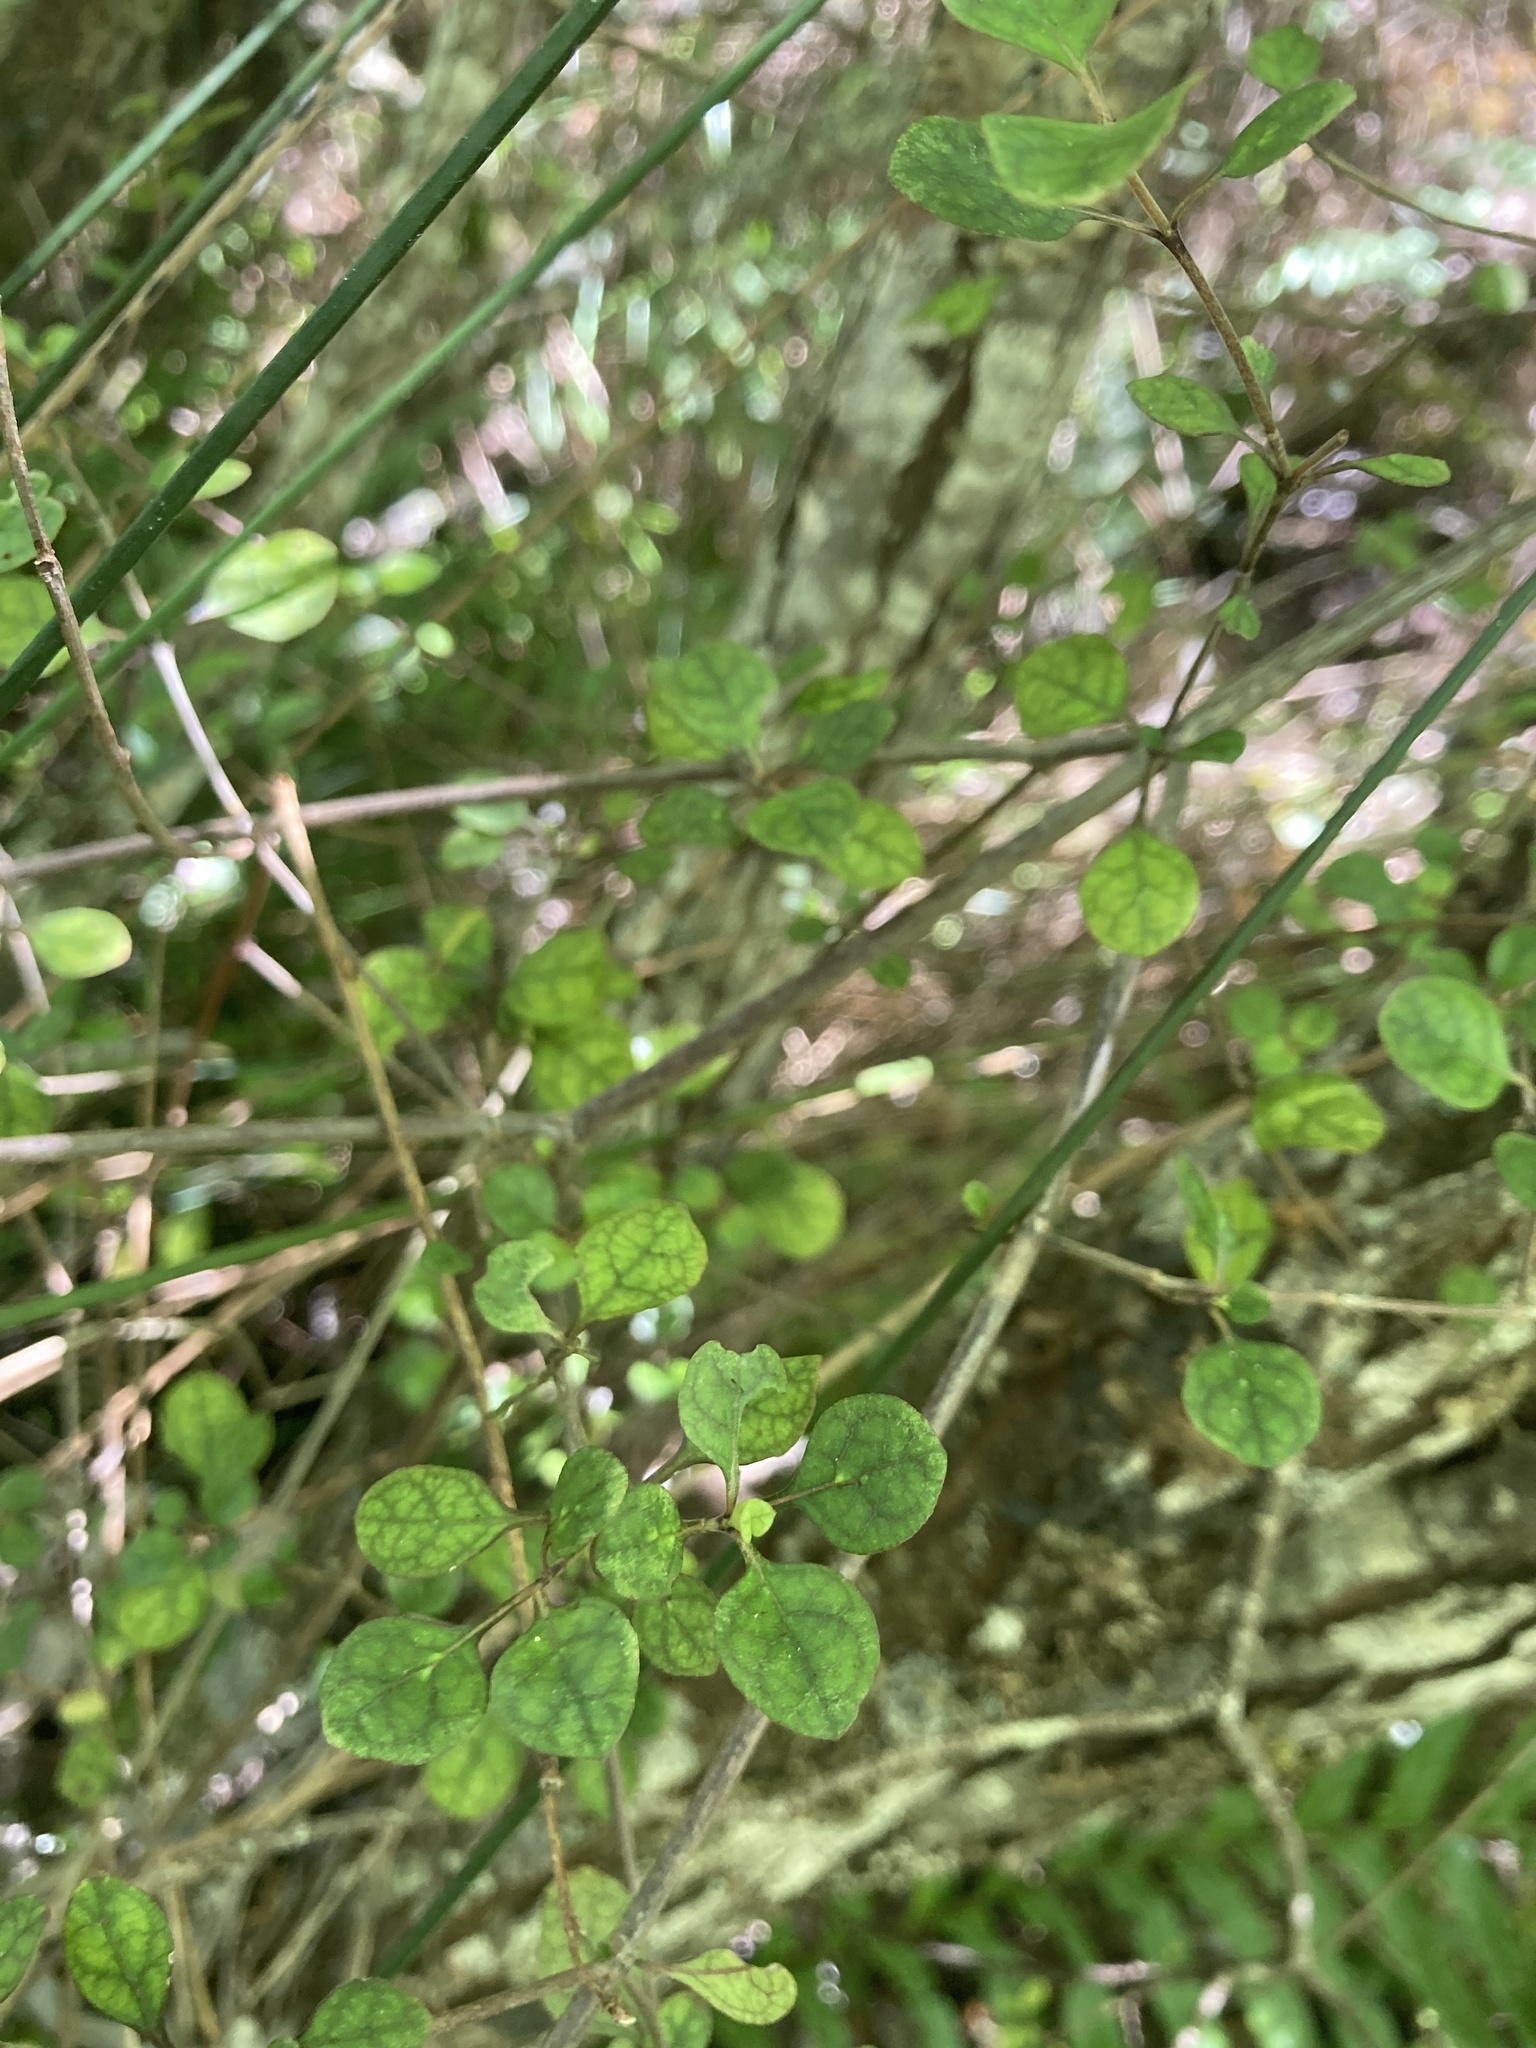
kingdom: Plantae
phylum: Tracheophyta
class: Magnoliopsida
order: Gentianales
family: Rubiaceae
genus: Coprosma
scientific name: Coprosma tenuicaulis
